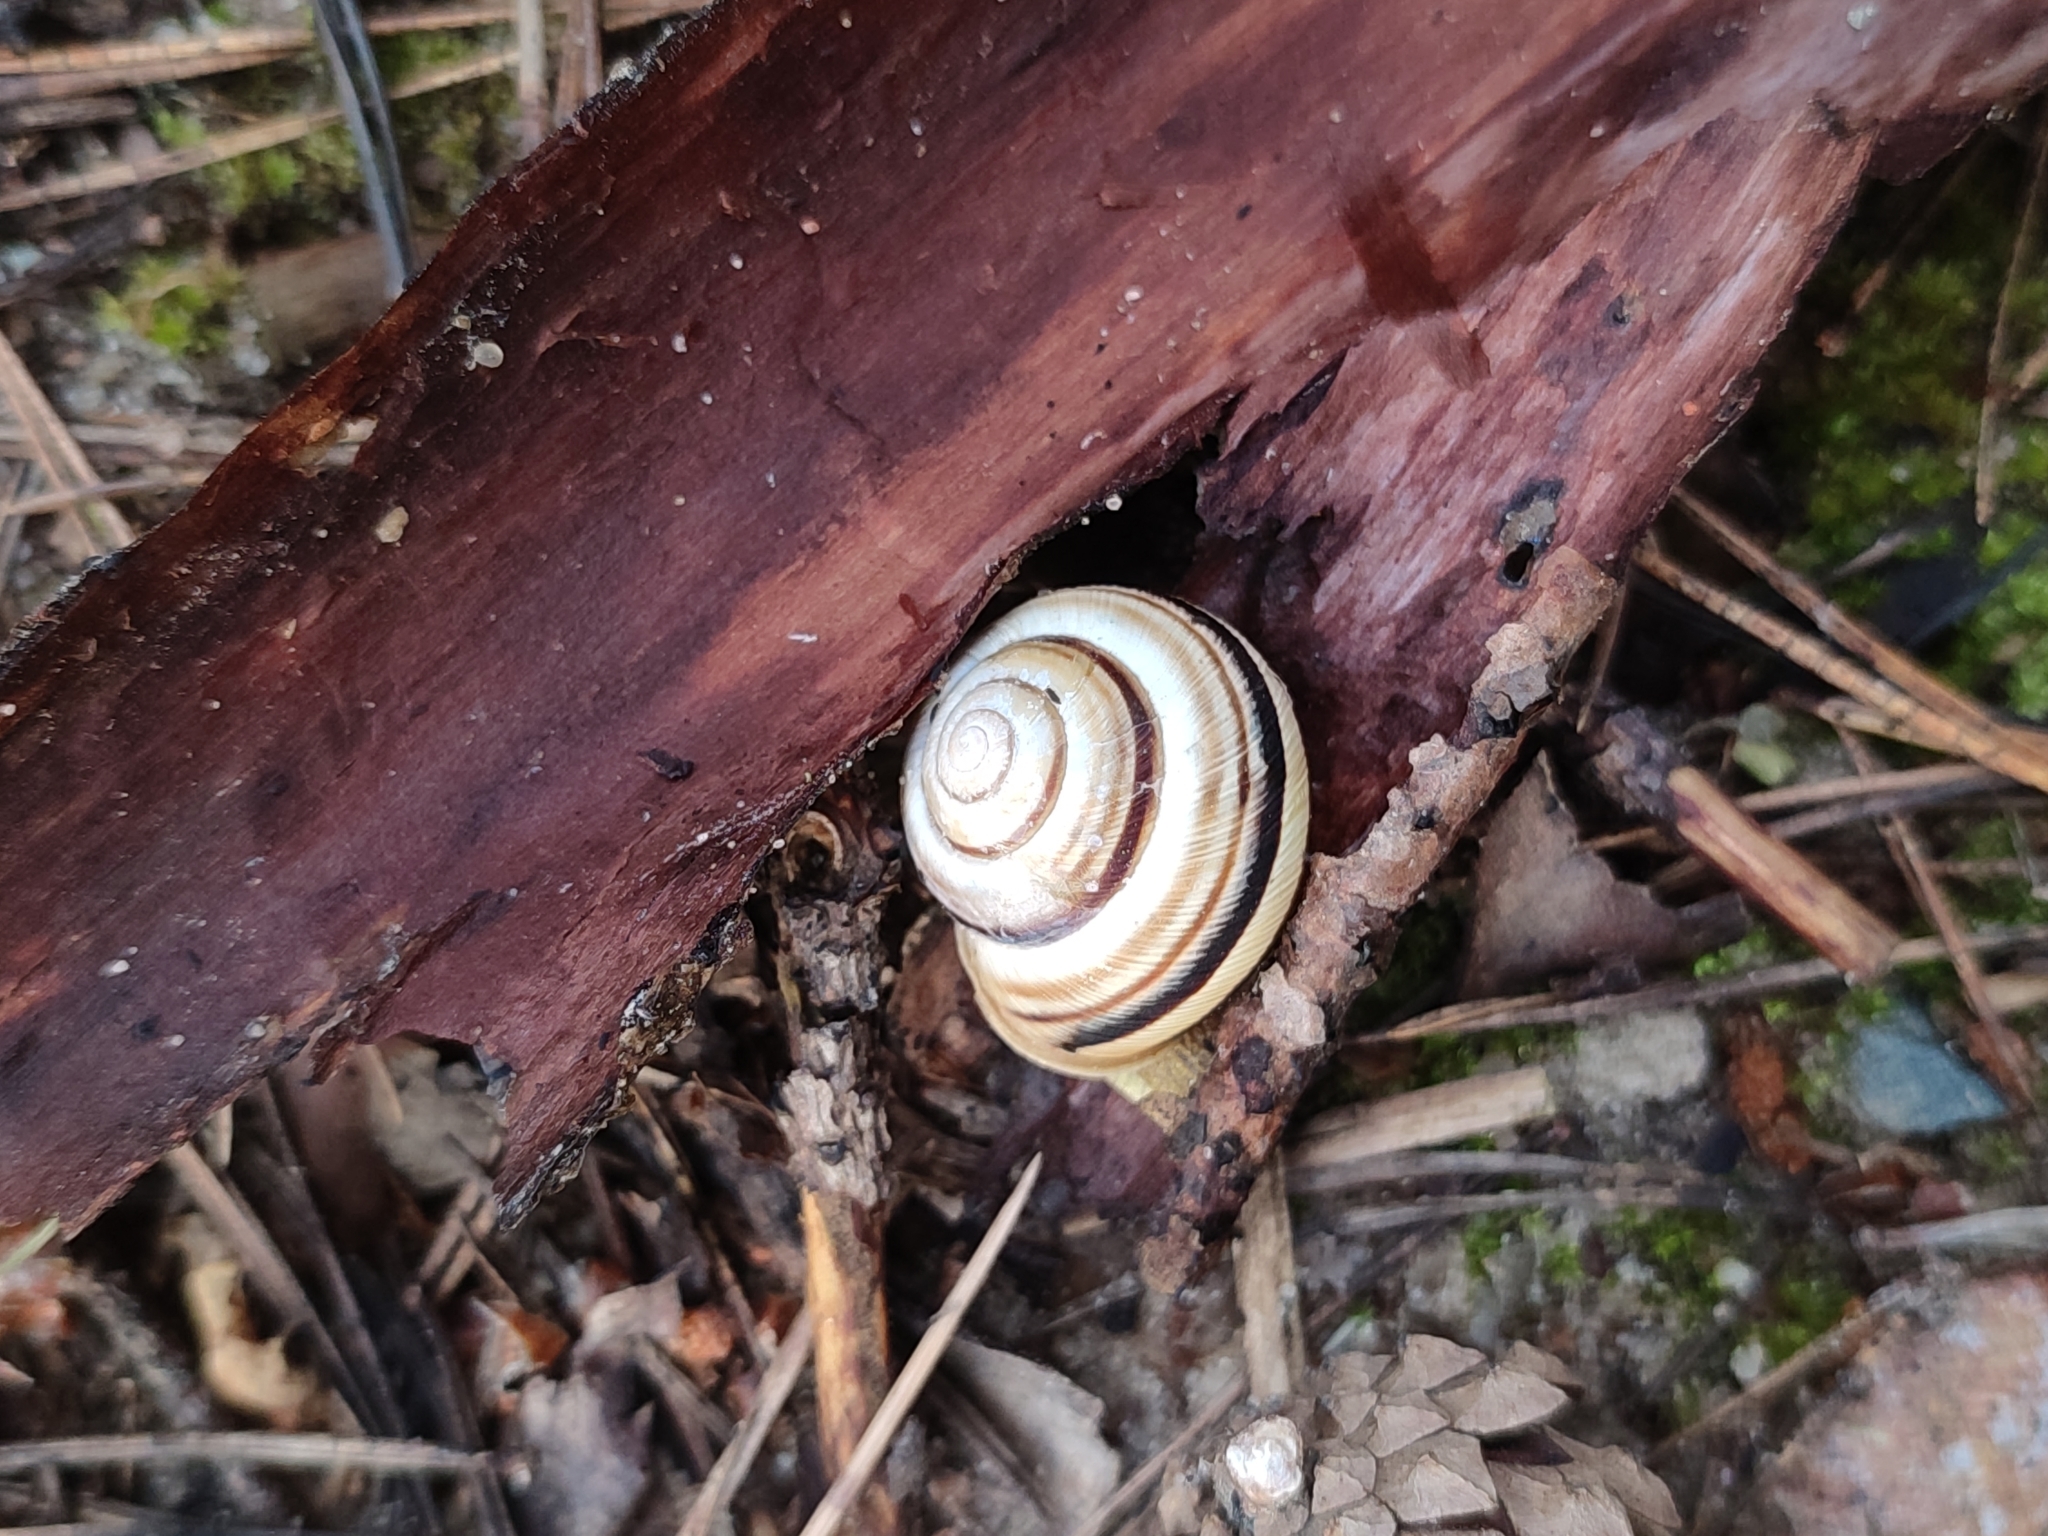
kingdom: Animalia
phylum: Mollusca
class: Gastropoda
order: Stylommatophora
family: Helicidae
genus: Caucasotachea
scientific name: Caucasotachea vindobonensis
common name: European helicid land snail
